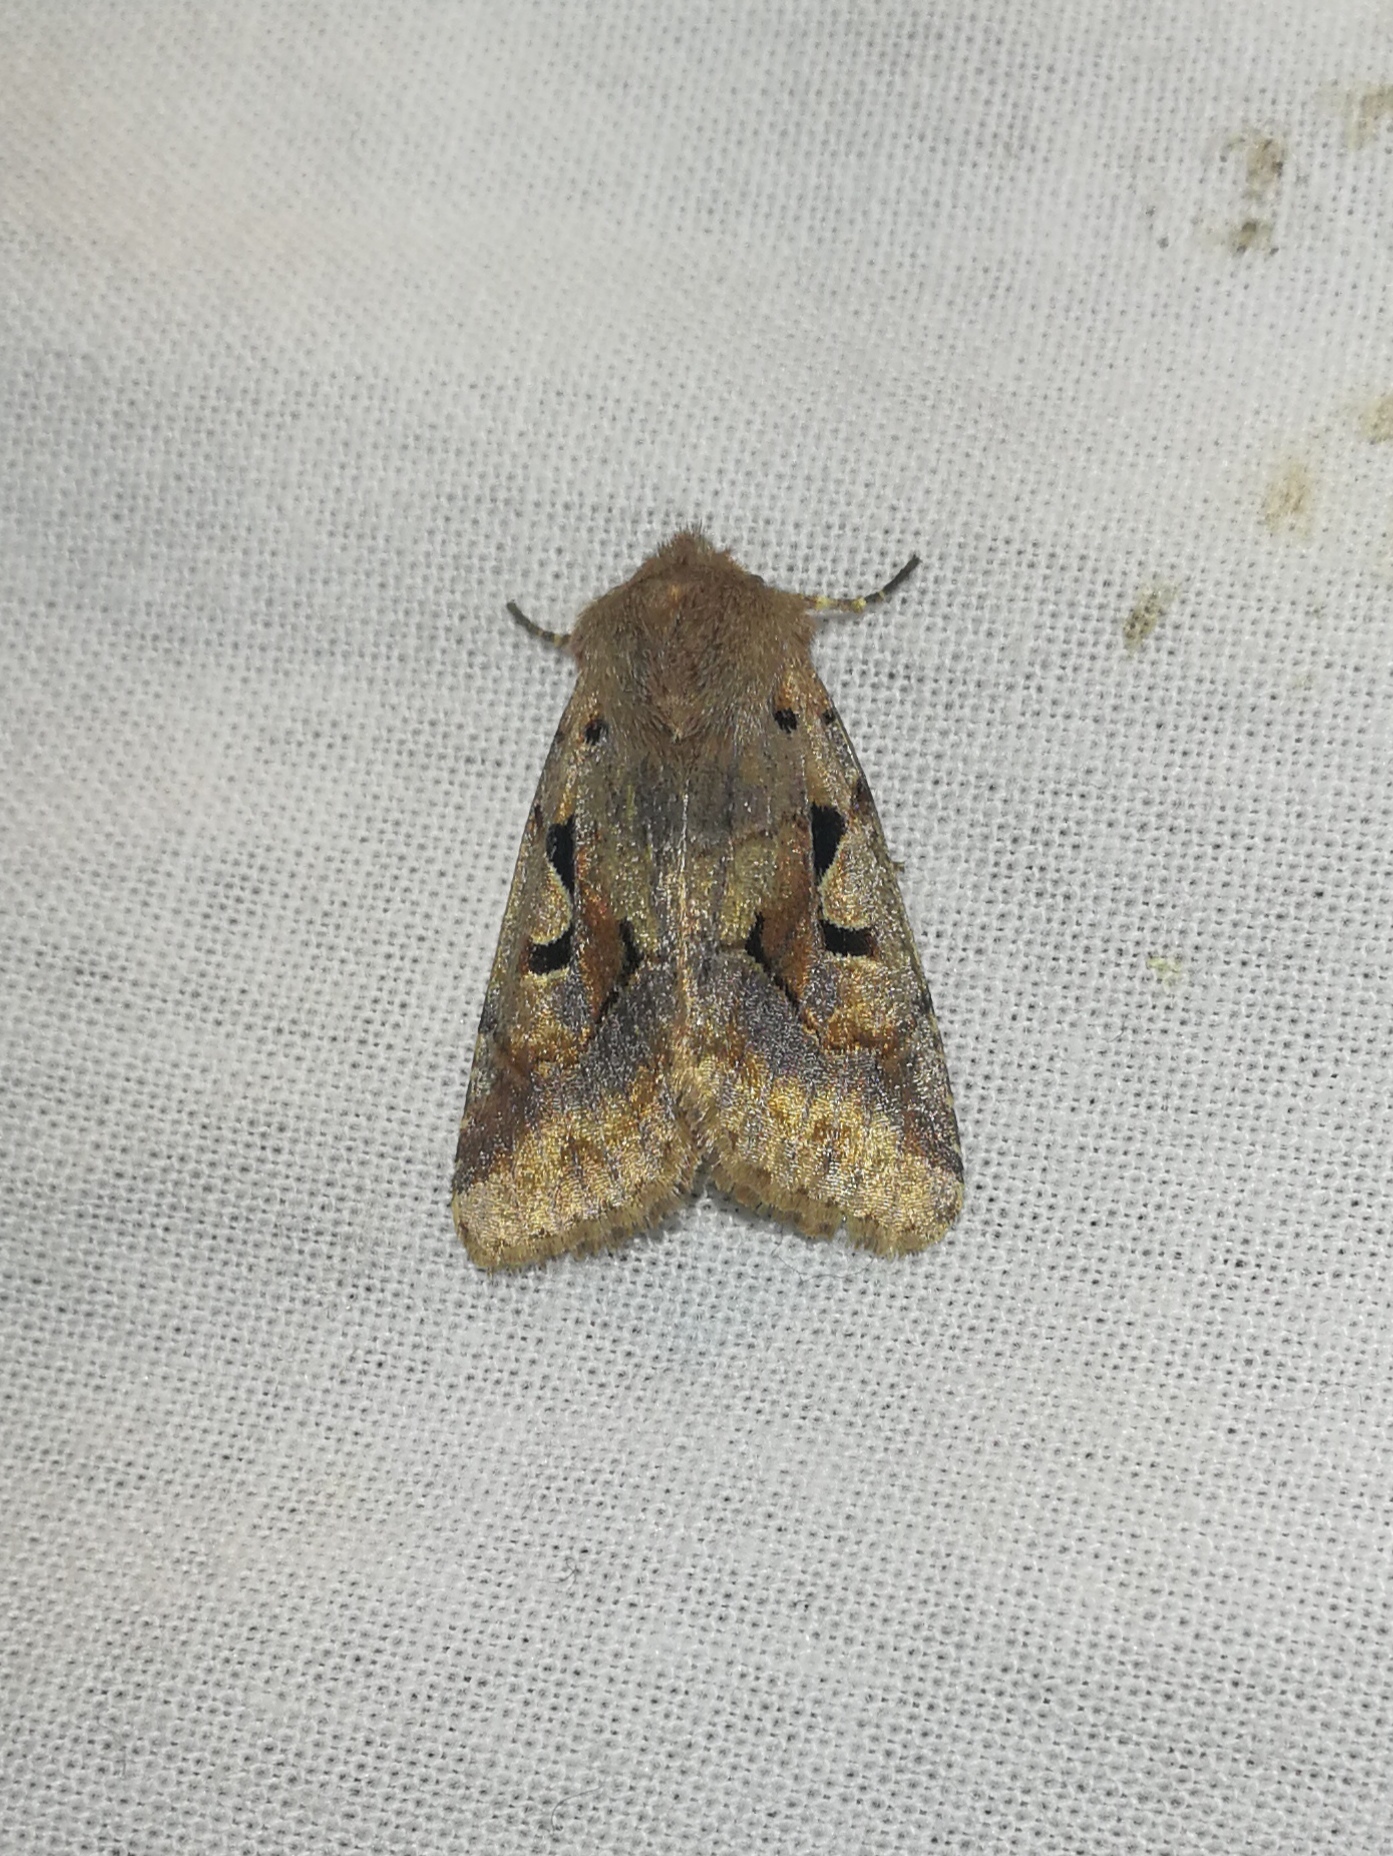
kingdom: Animalia
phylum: Arthropoda
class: Insecta
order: Lepidoptera
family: Noctuidae
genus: Orthosia
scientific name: Orthosia gothica
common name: Hebrew character
